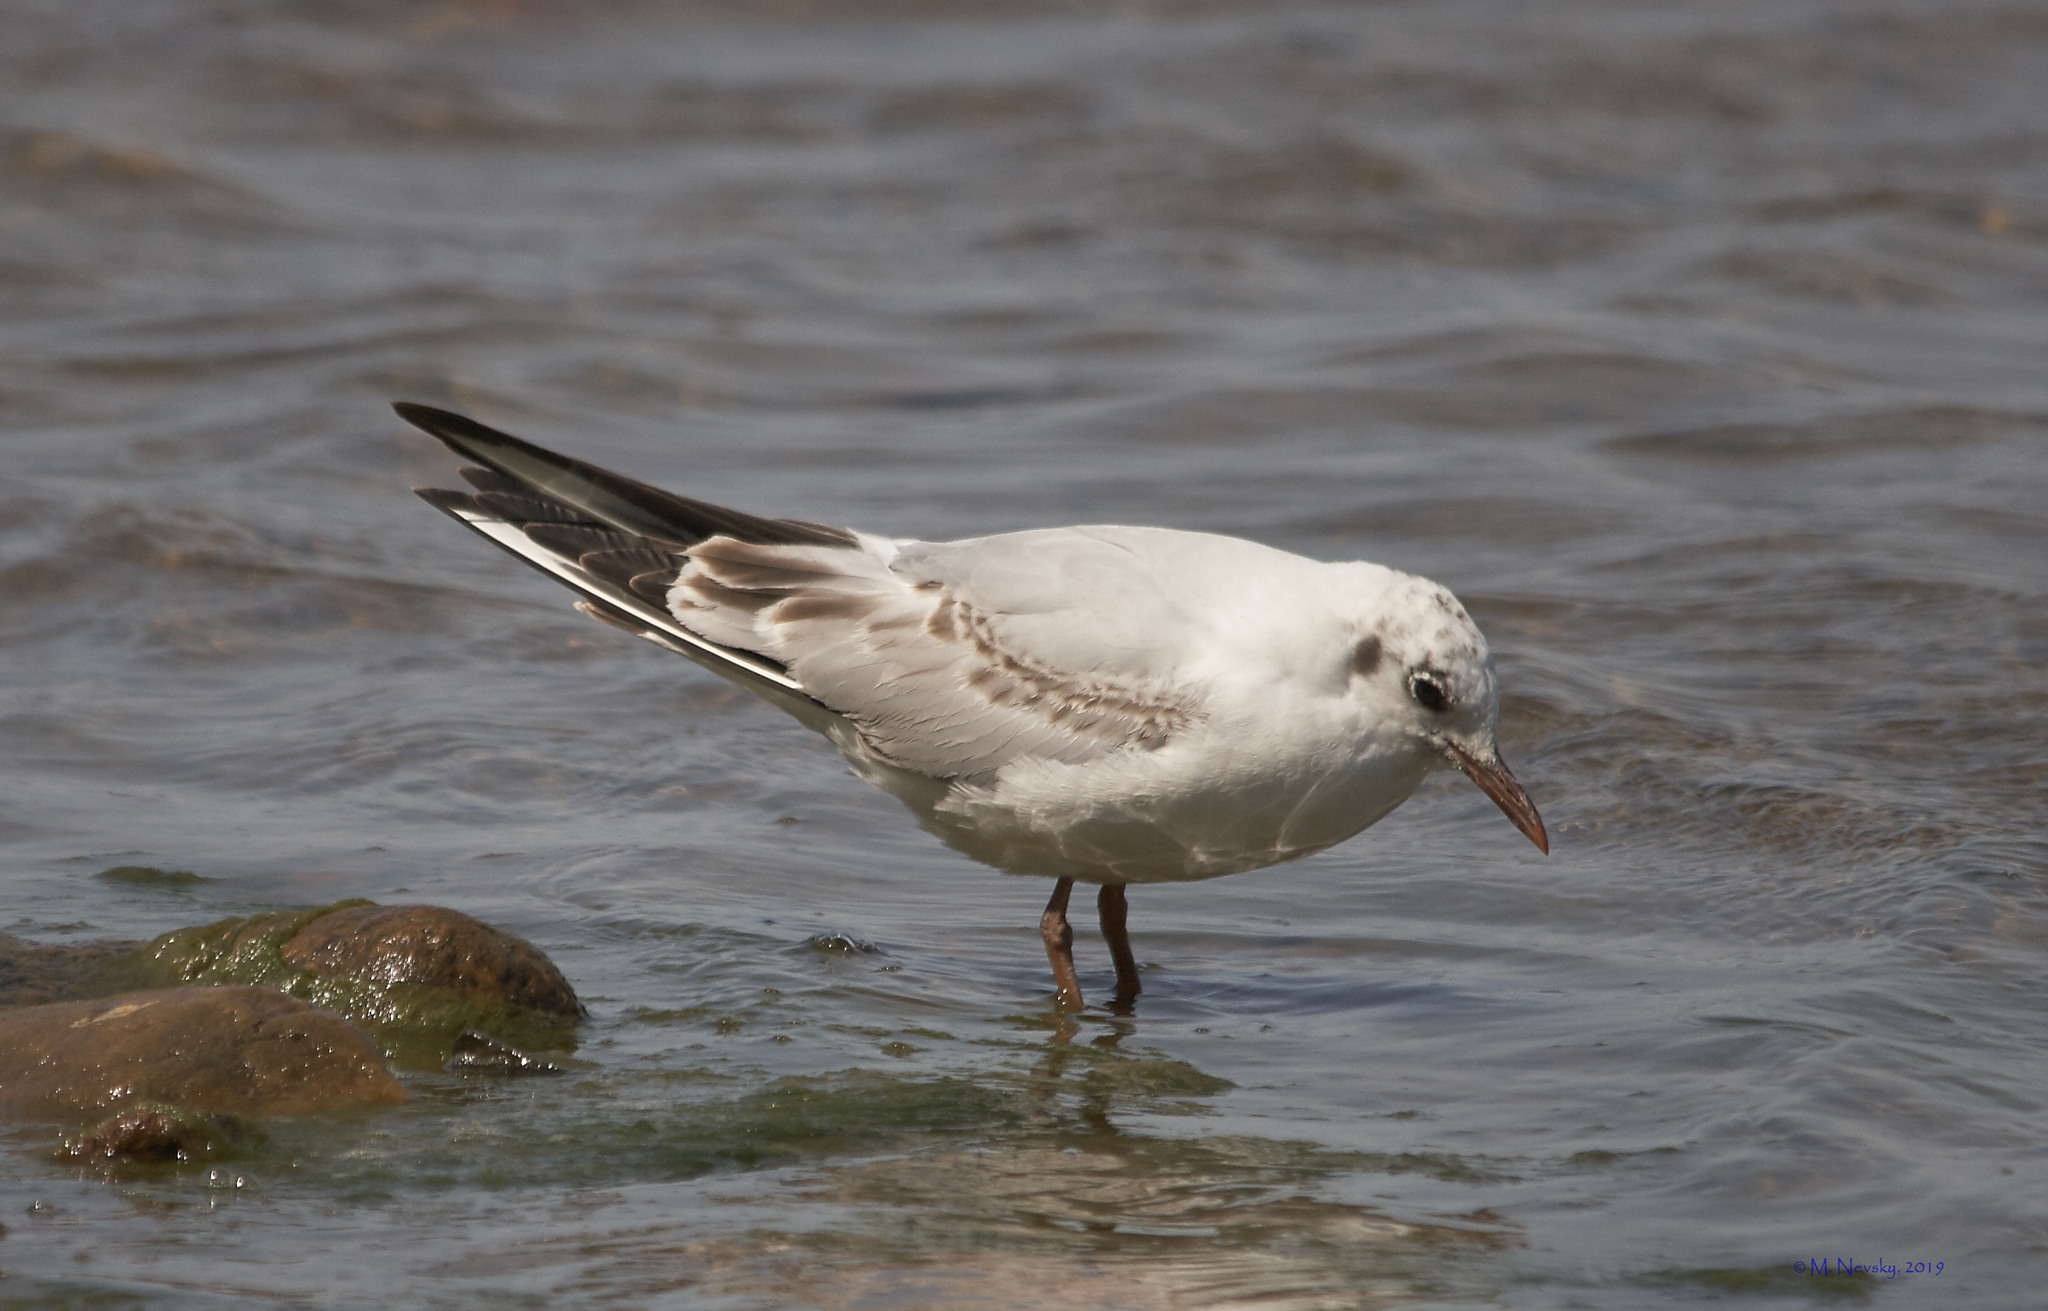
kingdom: Animalia
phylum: Chordata
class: Aves
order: Charadriiformes
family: Laridae
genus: Chroicocephalus
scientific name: Chroicocephalus ridibundus
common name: Black-headed gull
